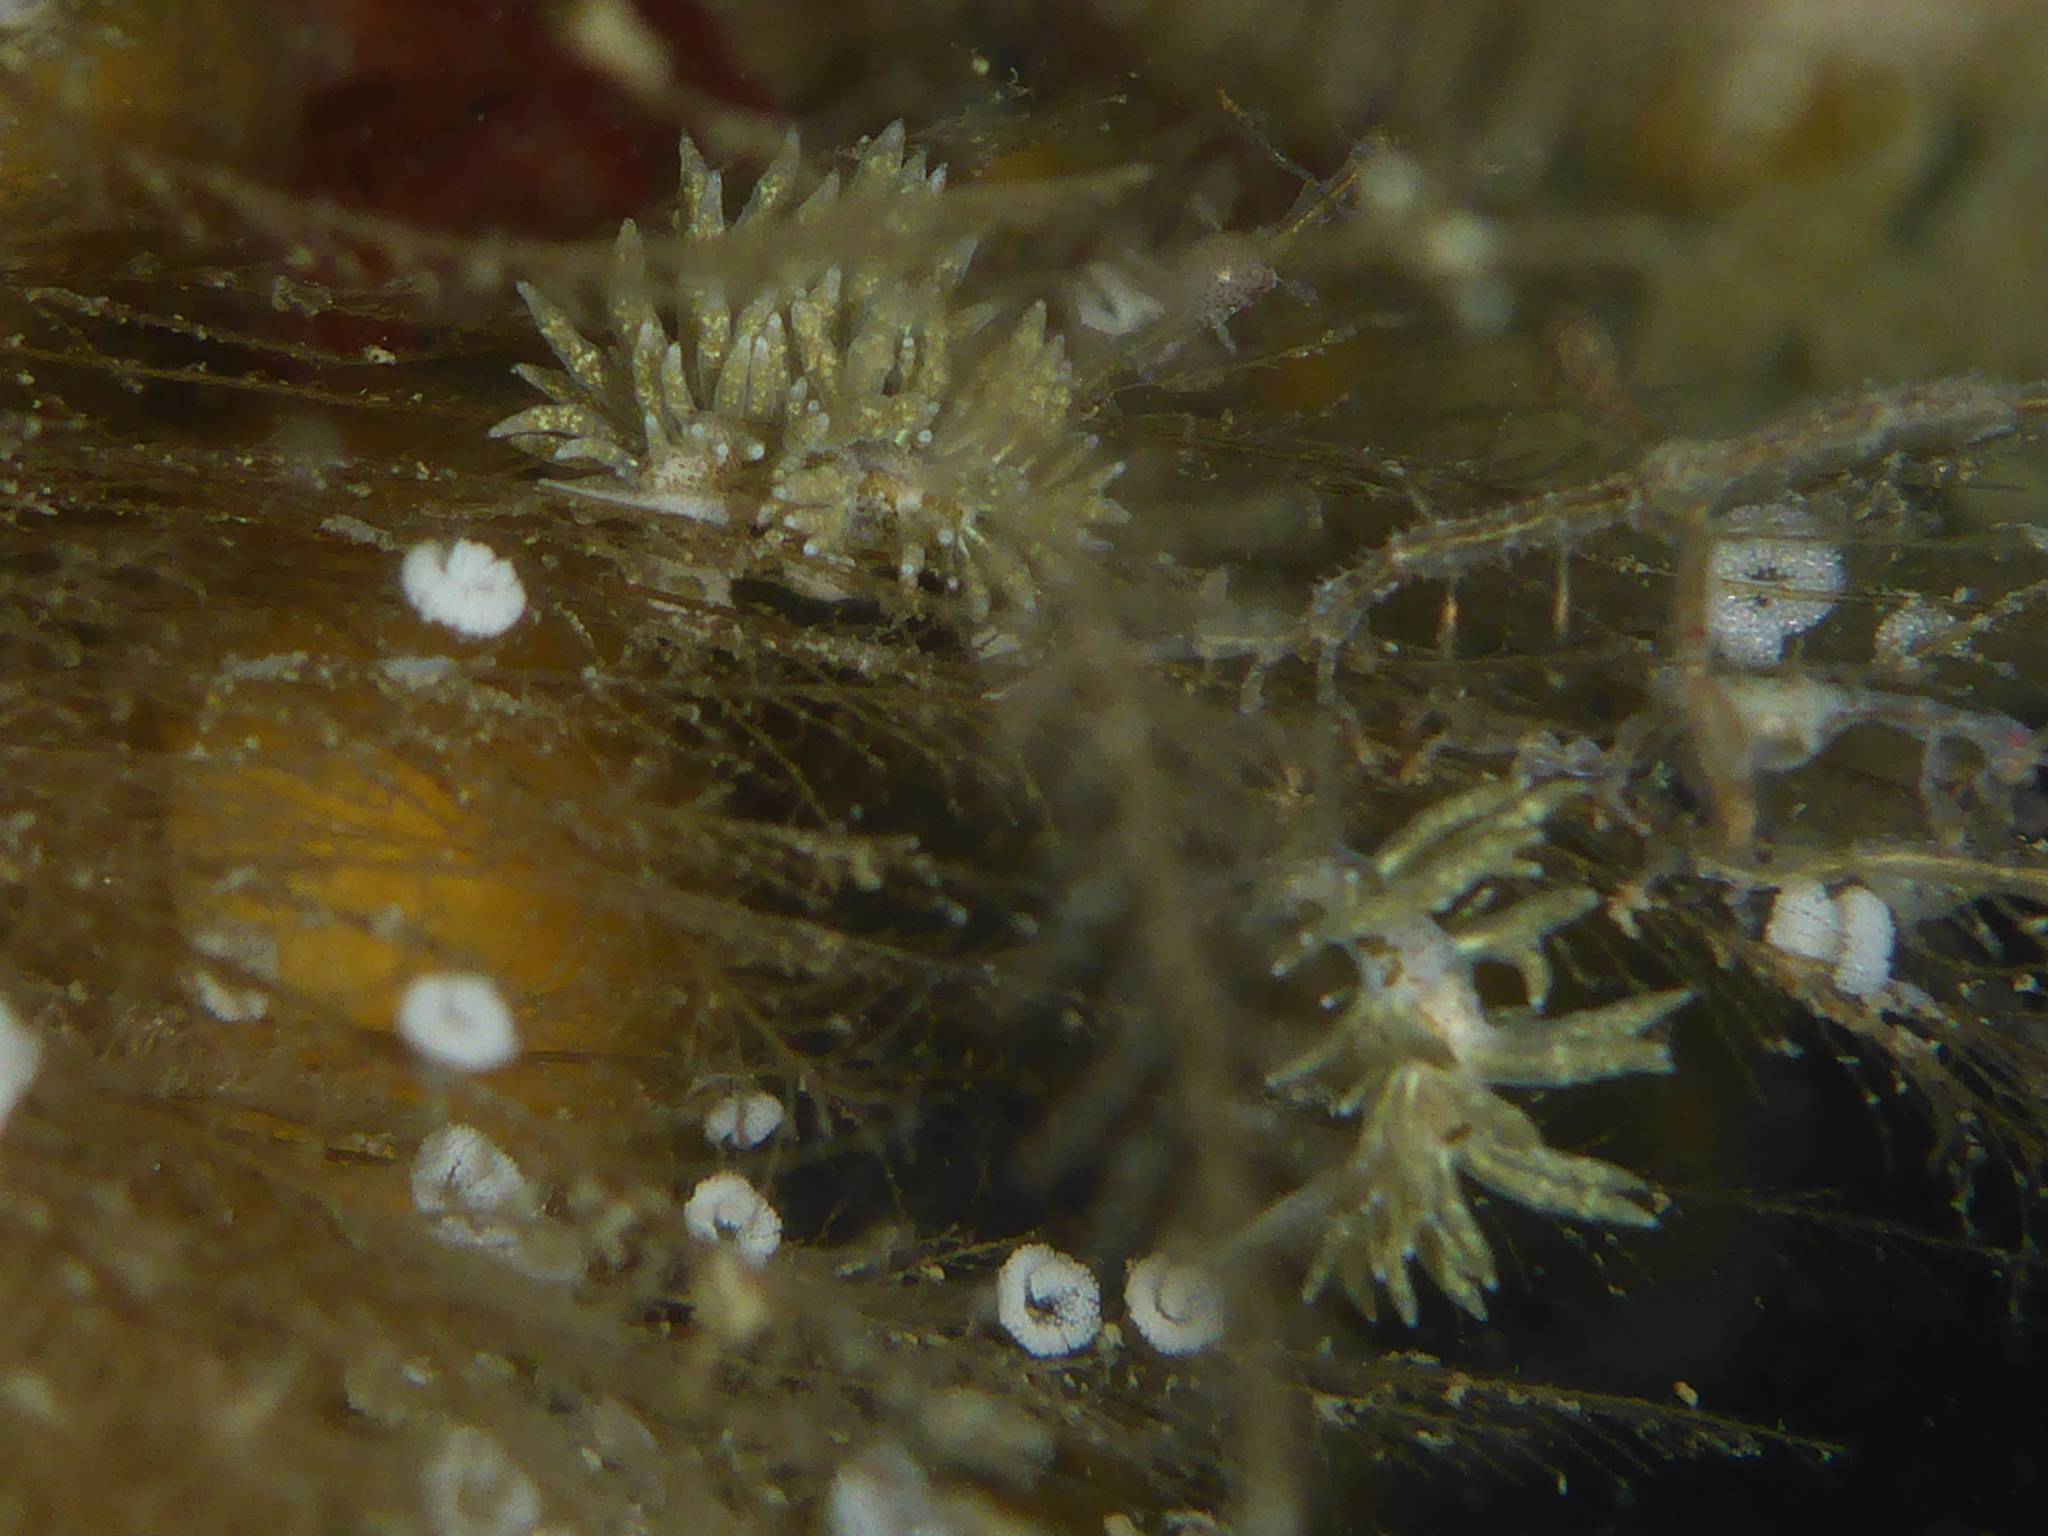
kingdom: Animalia
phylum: Mollusca
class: Gastropoda
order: Nudibranchia
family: Eubranchidae
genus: Eubranchus
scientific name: Eubranchus rustyus
